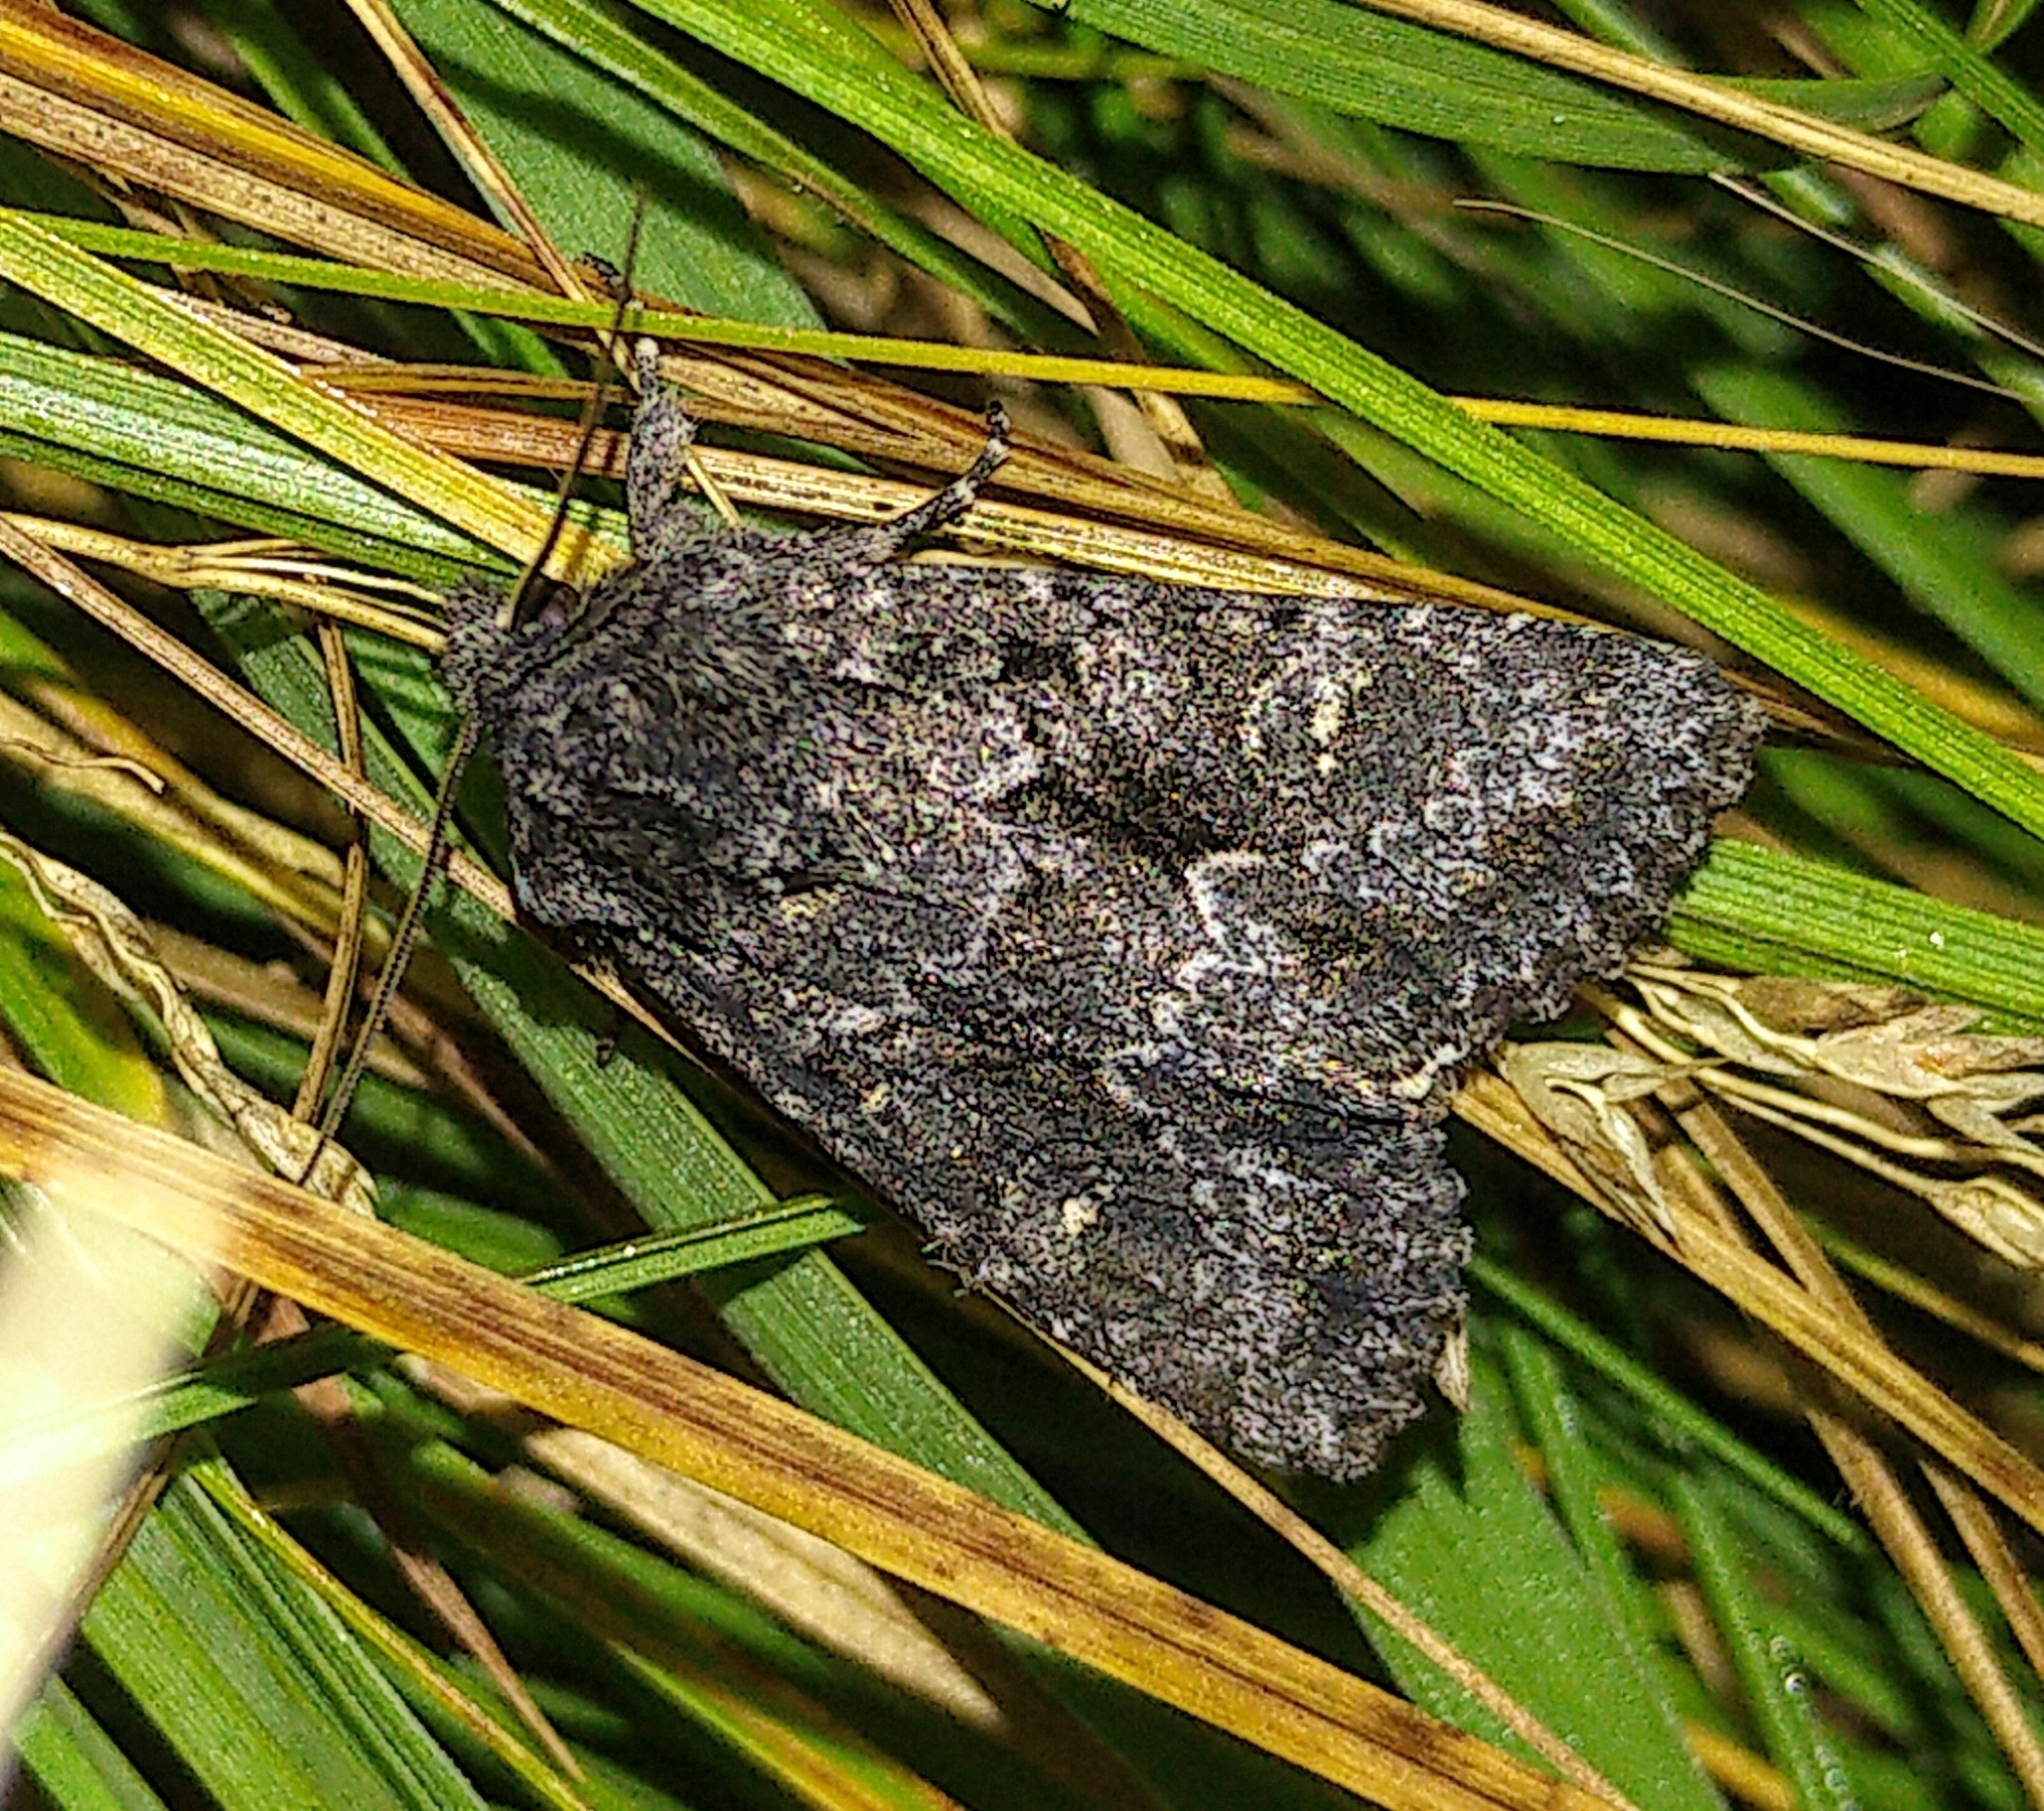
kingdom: Animalia
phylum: Arthropoda
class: Insecta
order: Lepidoptera
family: Noctuidae
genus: Sutyna
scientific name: Sutyna privata
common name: Private sallow
